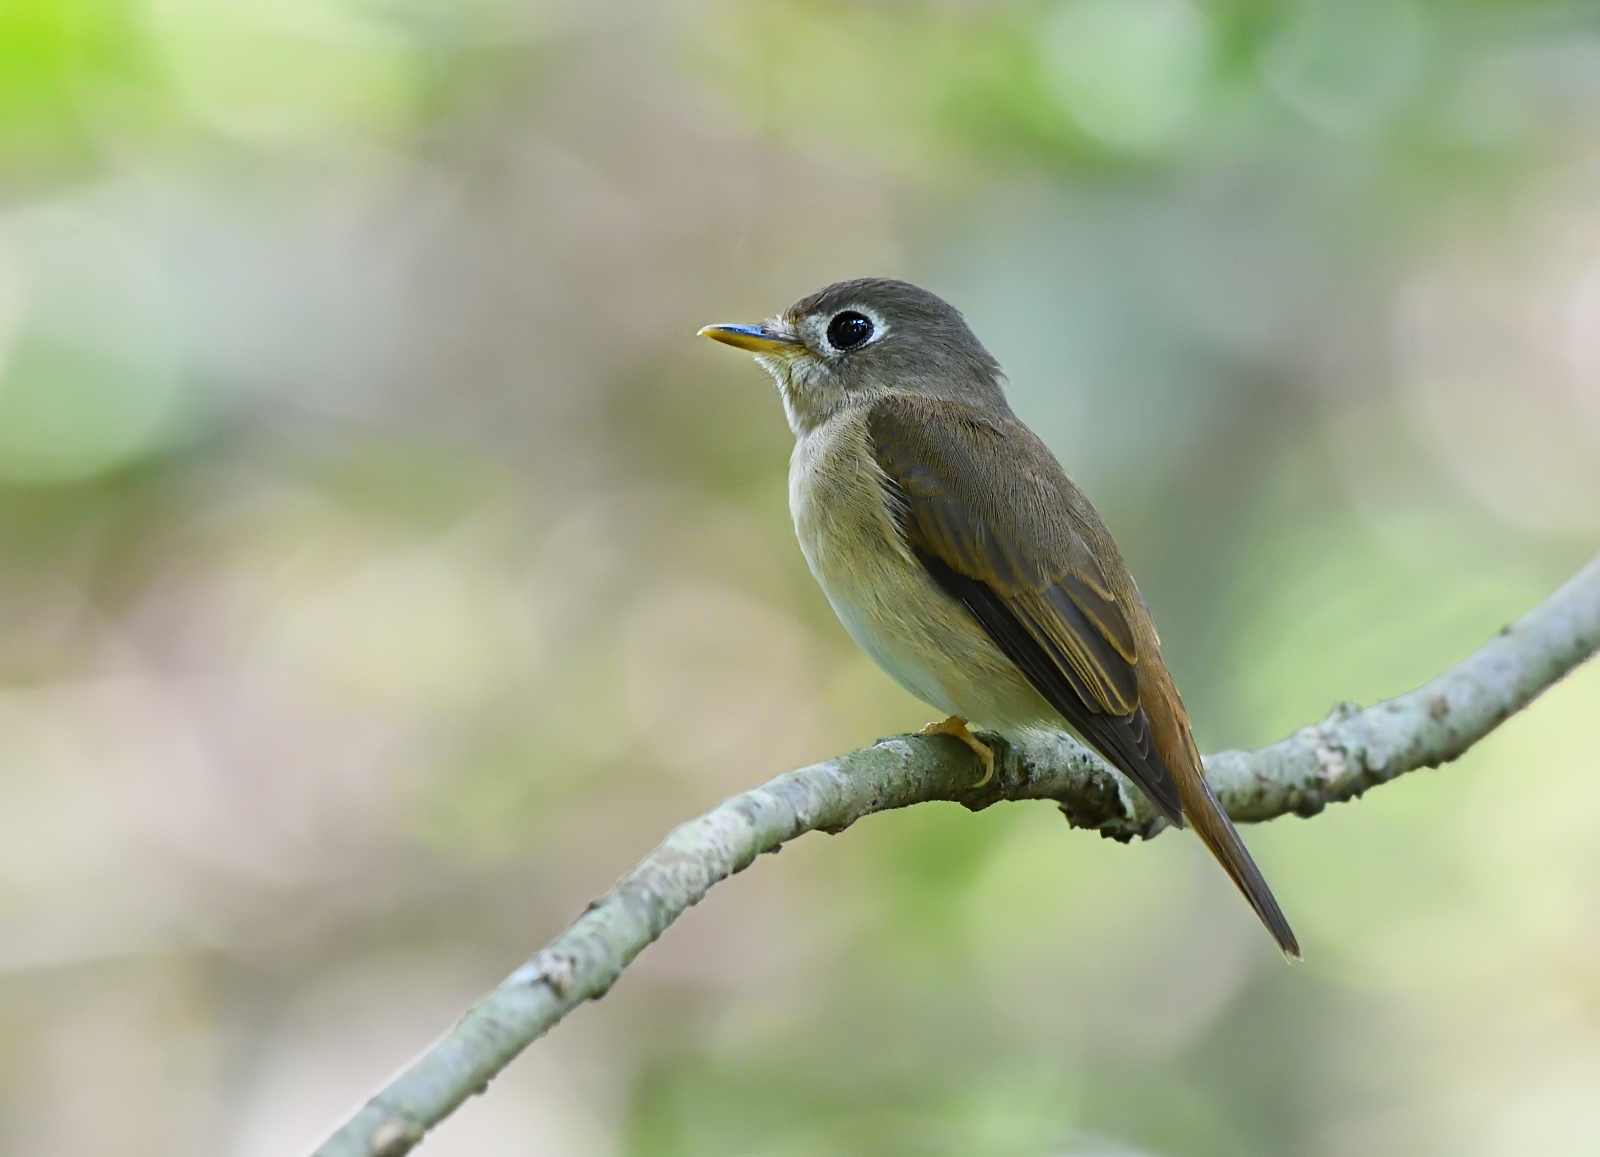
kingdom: Animalia
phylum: Chordata
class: Aves
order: Passeriformes
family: Muscicapidae
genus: Muscicapa
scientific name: Muscicapa muttui
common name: Brown-breasted flycatcher
